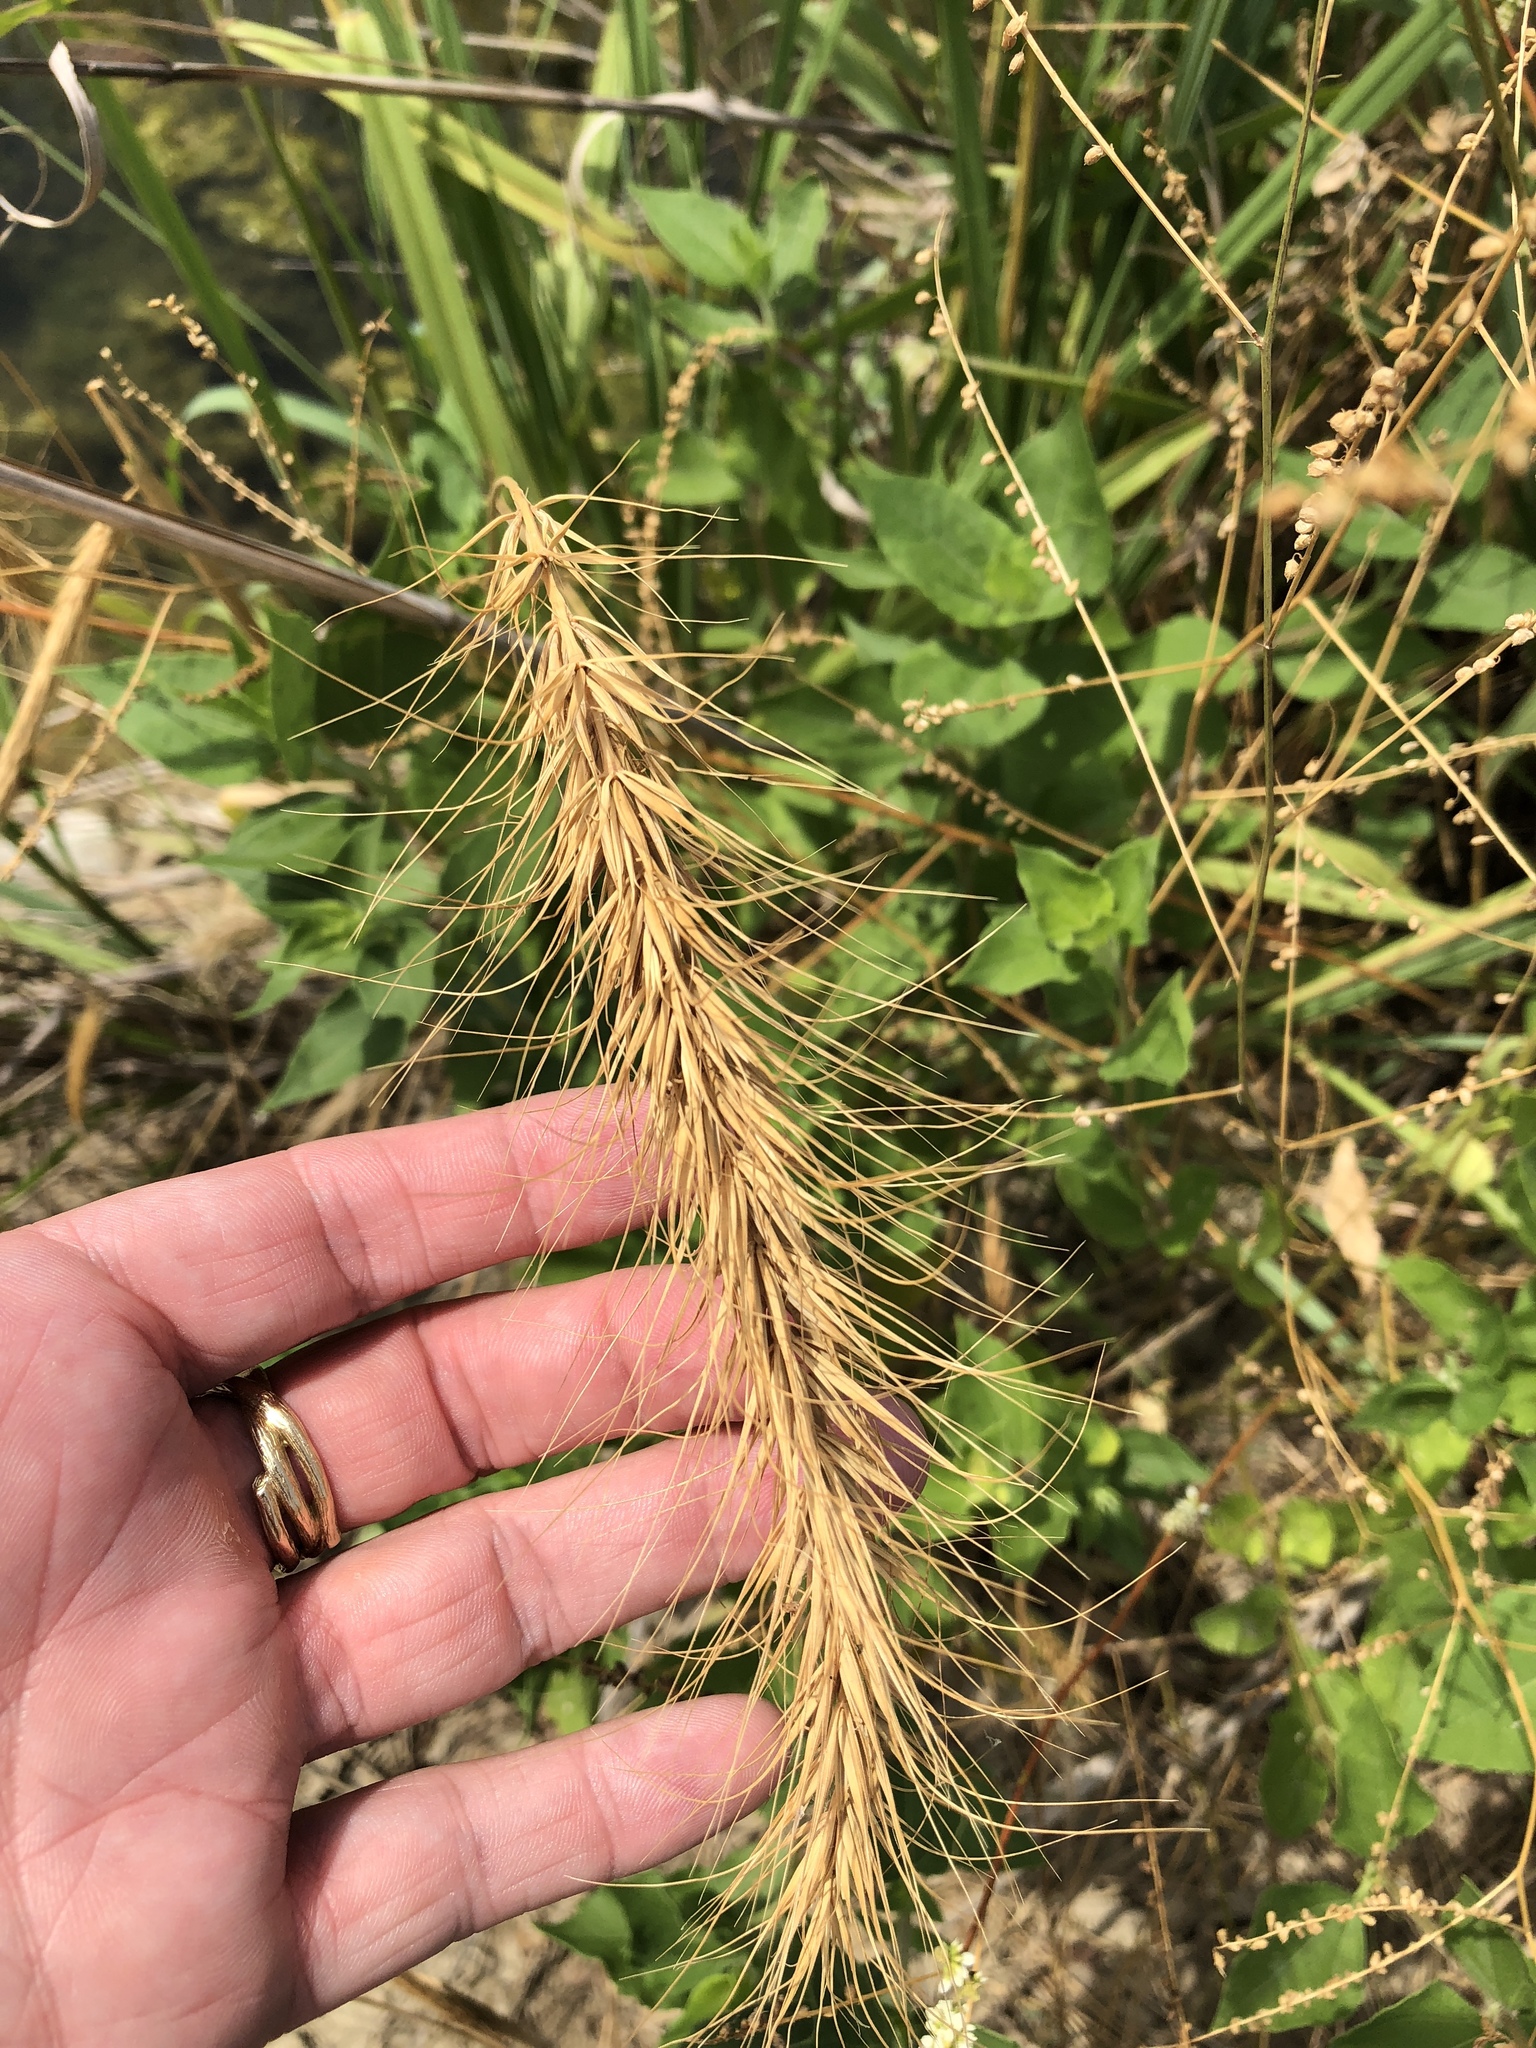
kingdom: Plantae
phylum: Tracheophyta
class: Liliopsida
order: Poales
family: Poaceae
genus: Elymus
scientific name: Elymus canadensis
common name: Canada wild rye
